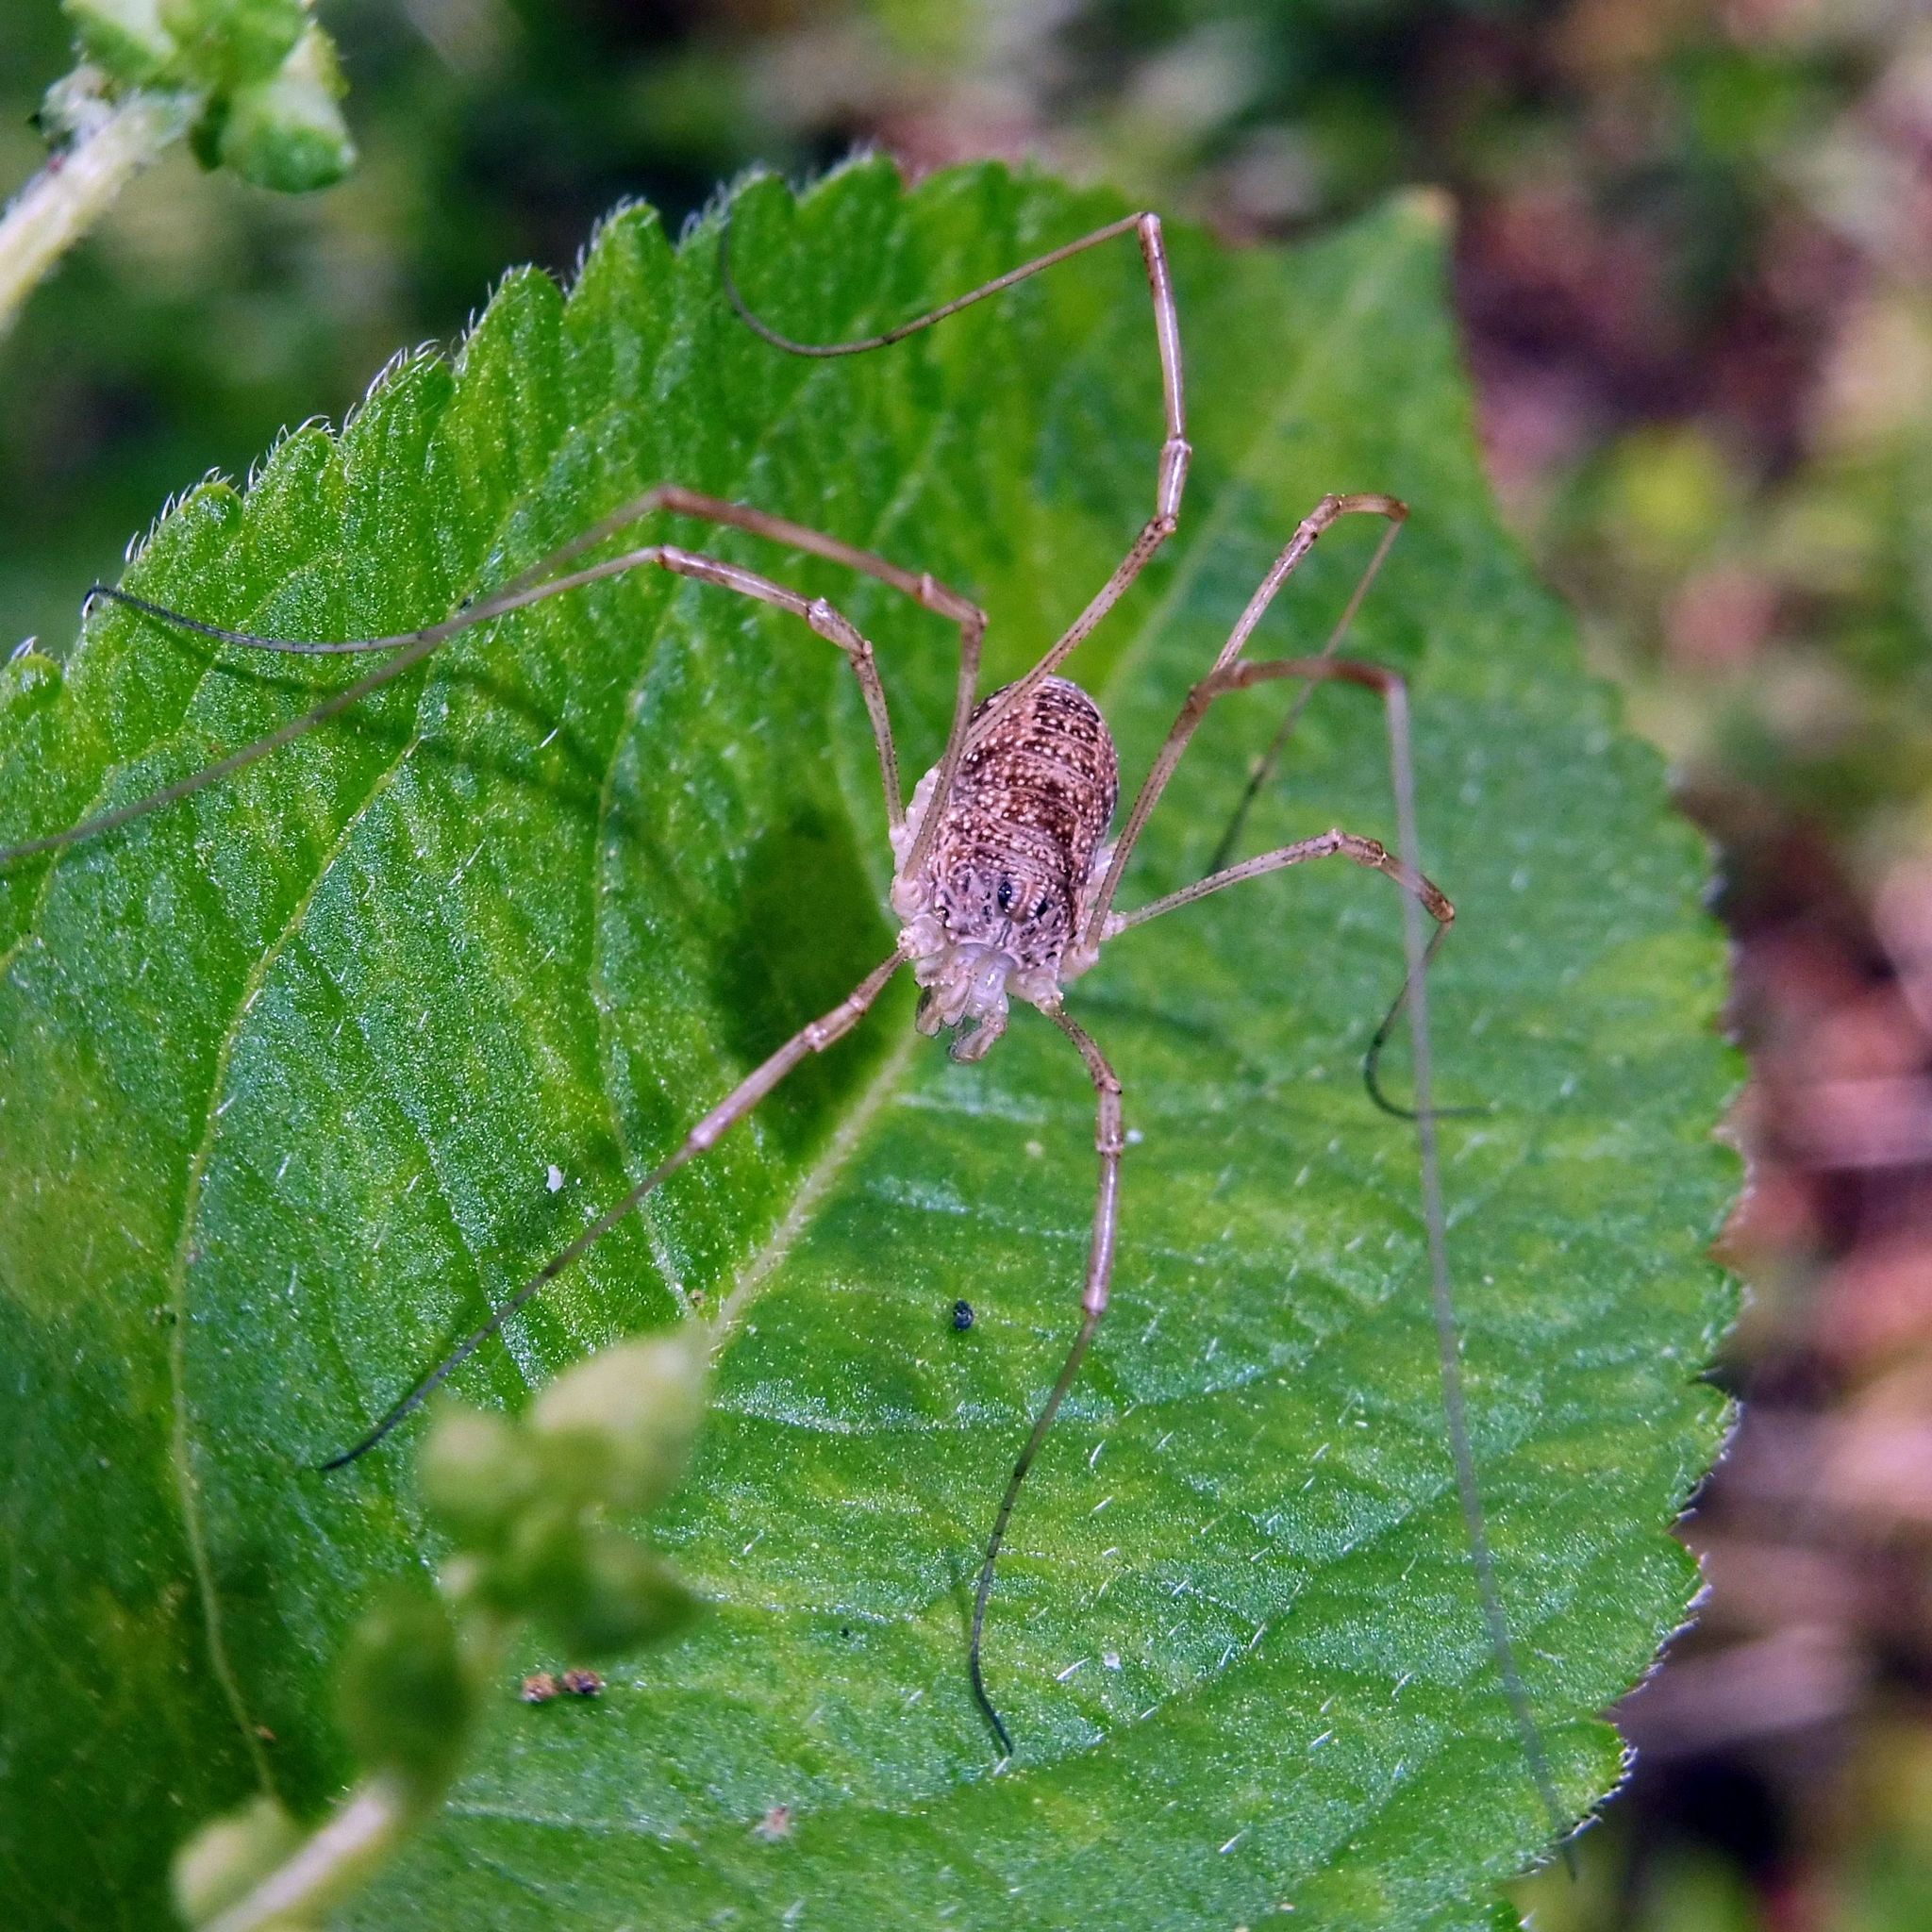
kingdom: Animalia
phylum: Arthropoda
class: Arachnida
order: Opiliones
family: Phalangiidae
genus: Rilaena
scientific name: Rilaena triangularis
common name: Spring harvestman
